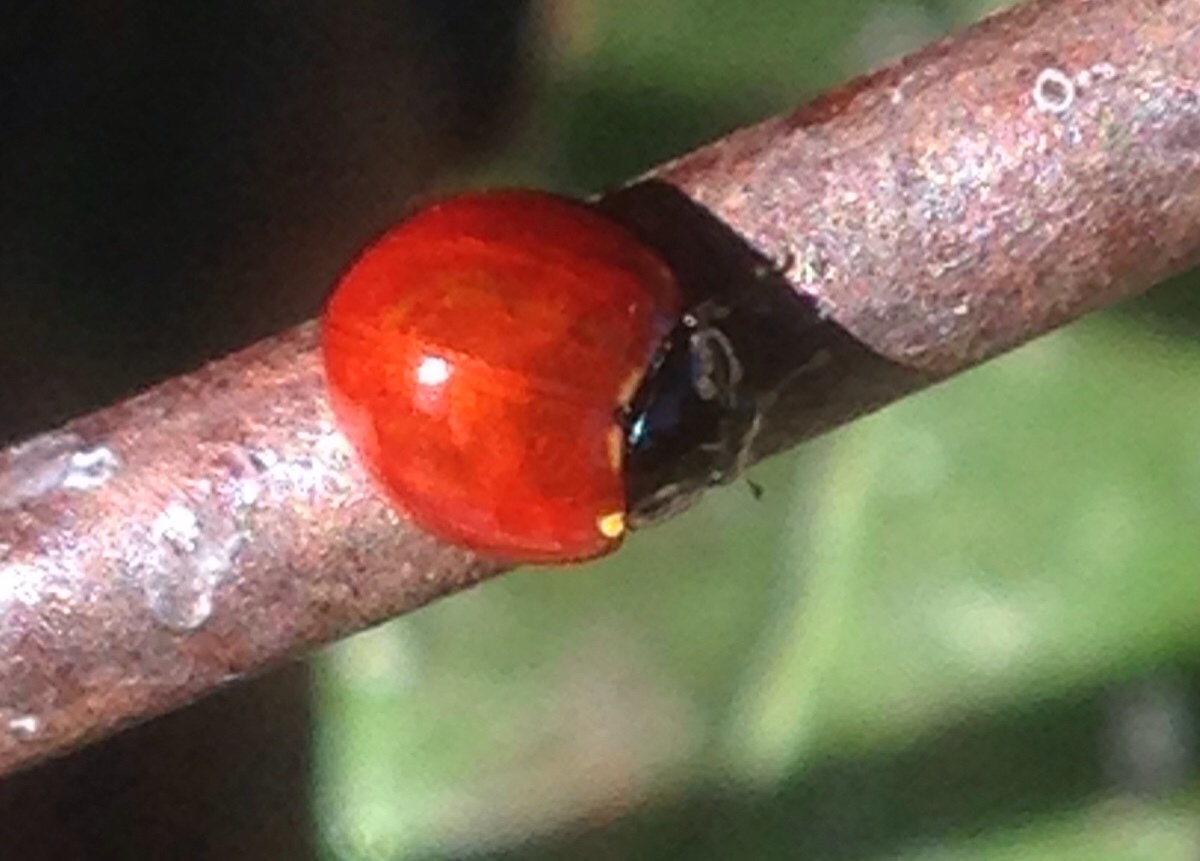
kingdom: Animalia
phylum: Arthropoda
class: Insecta
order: Coleoptera
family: Coccinellidae
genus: Cycloneda
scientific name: Cycloneda sanguinea
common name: Ladybird beetle
